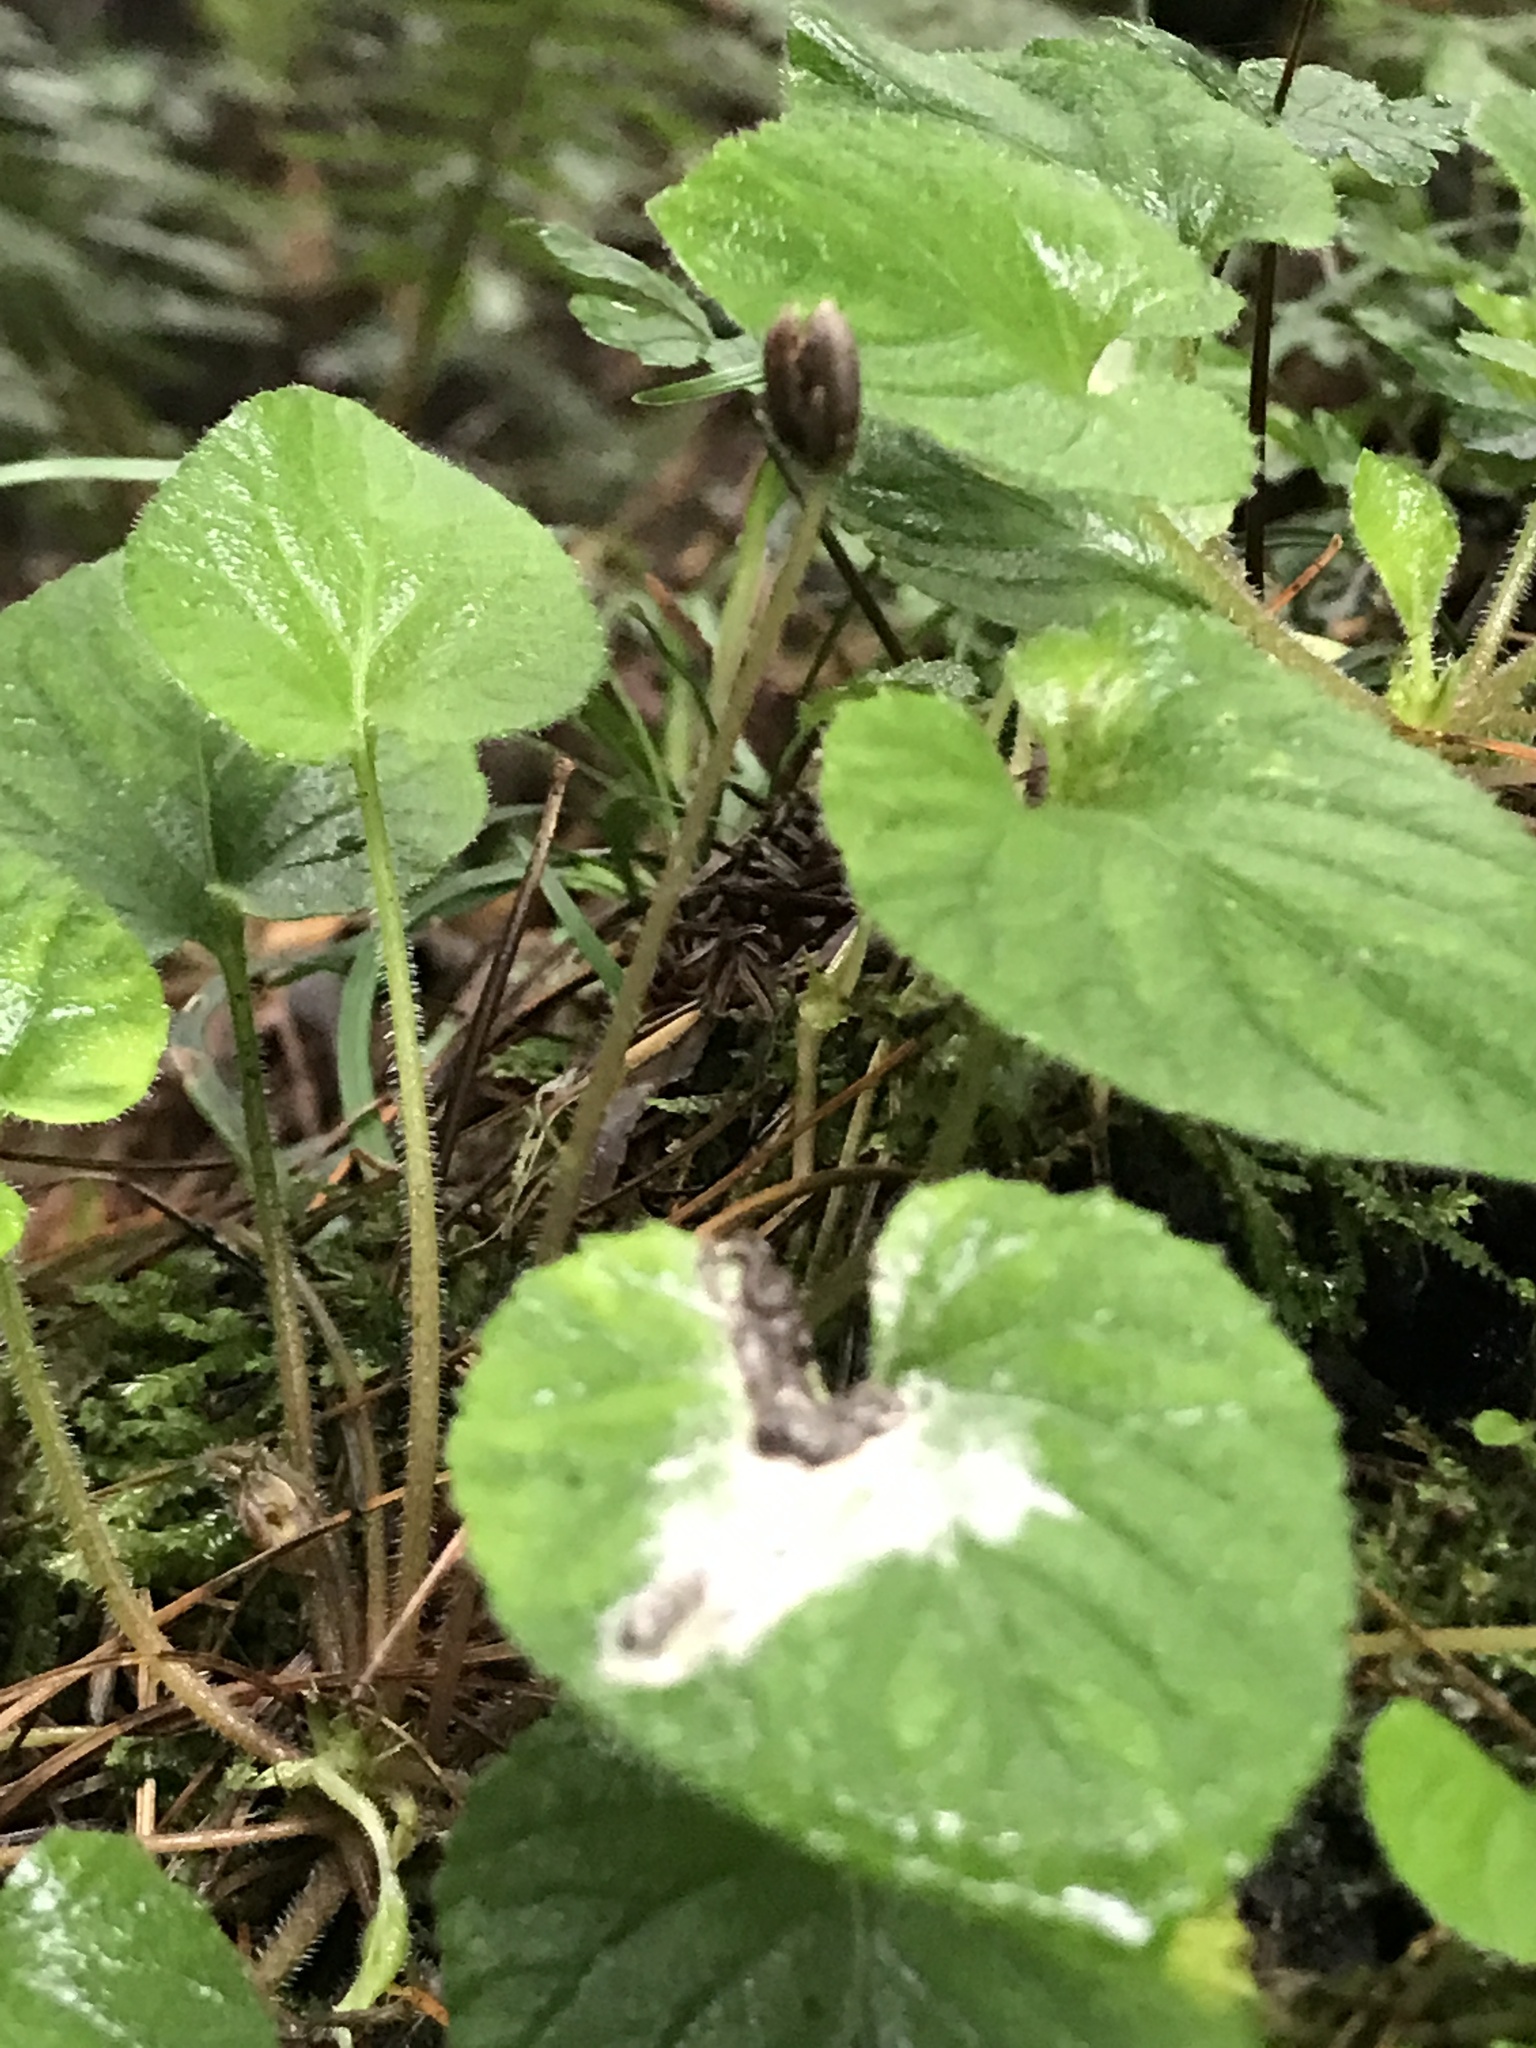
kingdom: Plantae
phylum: Tracheophyta
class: Magnoliopsida
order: Solanales
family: Solanaceae
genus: Lycianthes
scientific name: Lycianthes lysimachioides
